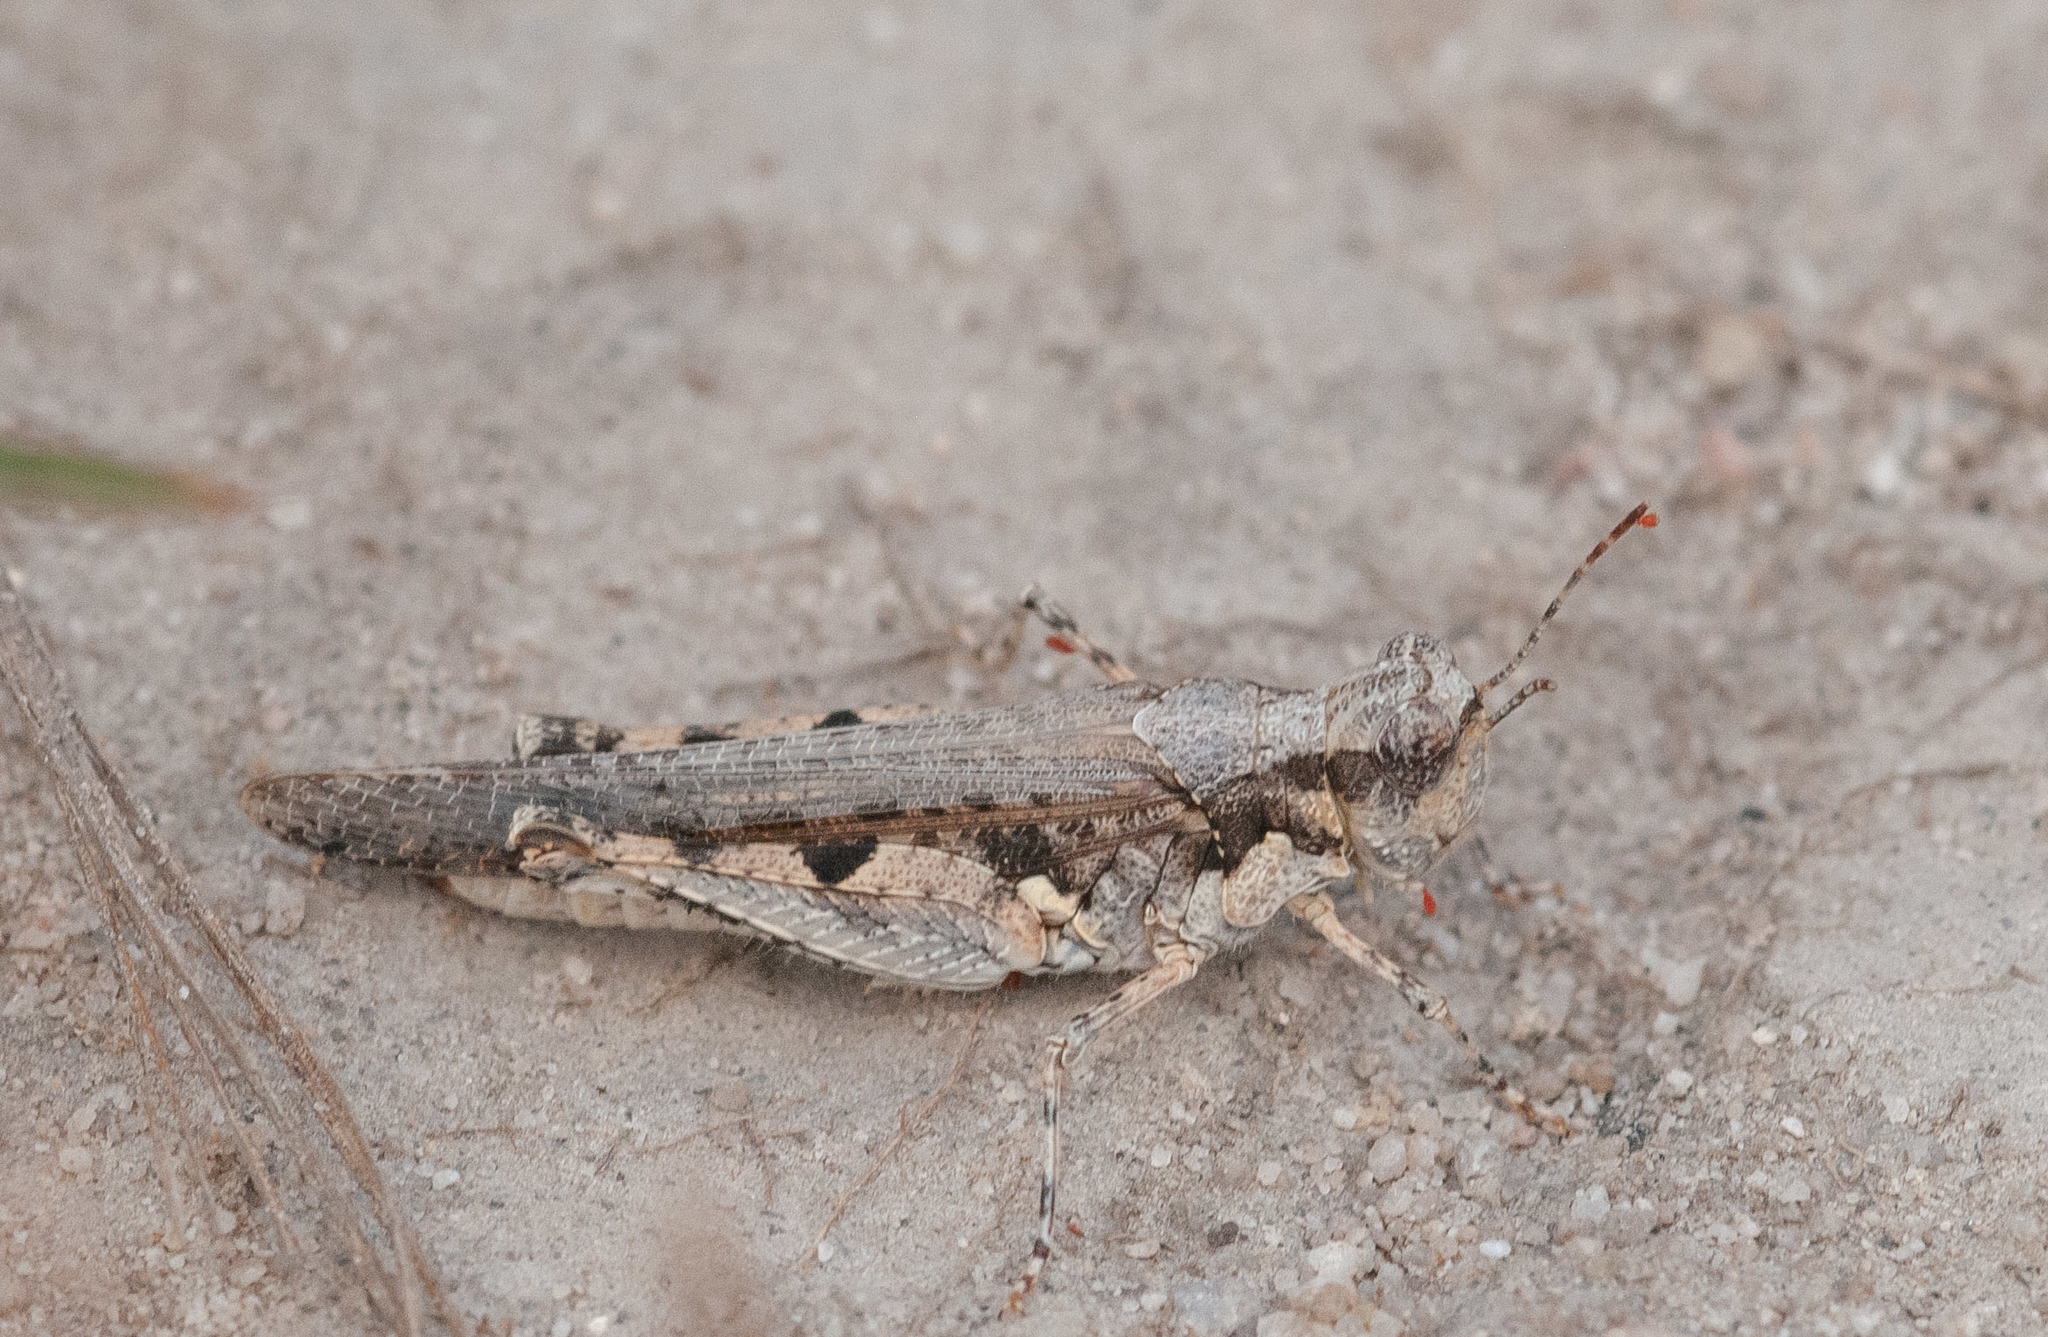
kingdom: Animalia
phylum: Arthropoda
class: Insecta
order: Orthoptera
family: Acrididae
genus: Pycnostictus
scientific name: Pycnostictus seriatus
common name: Common bandwing
